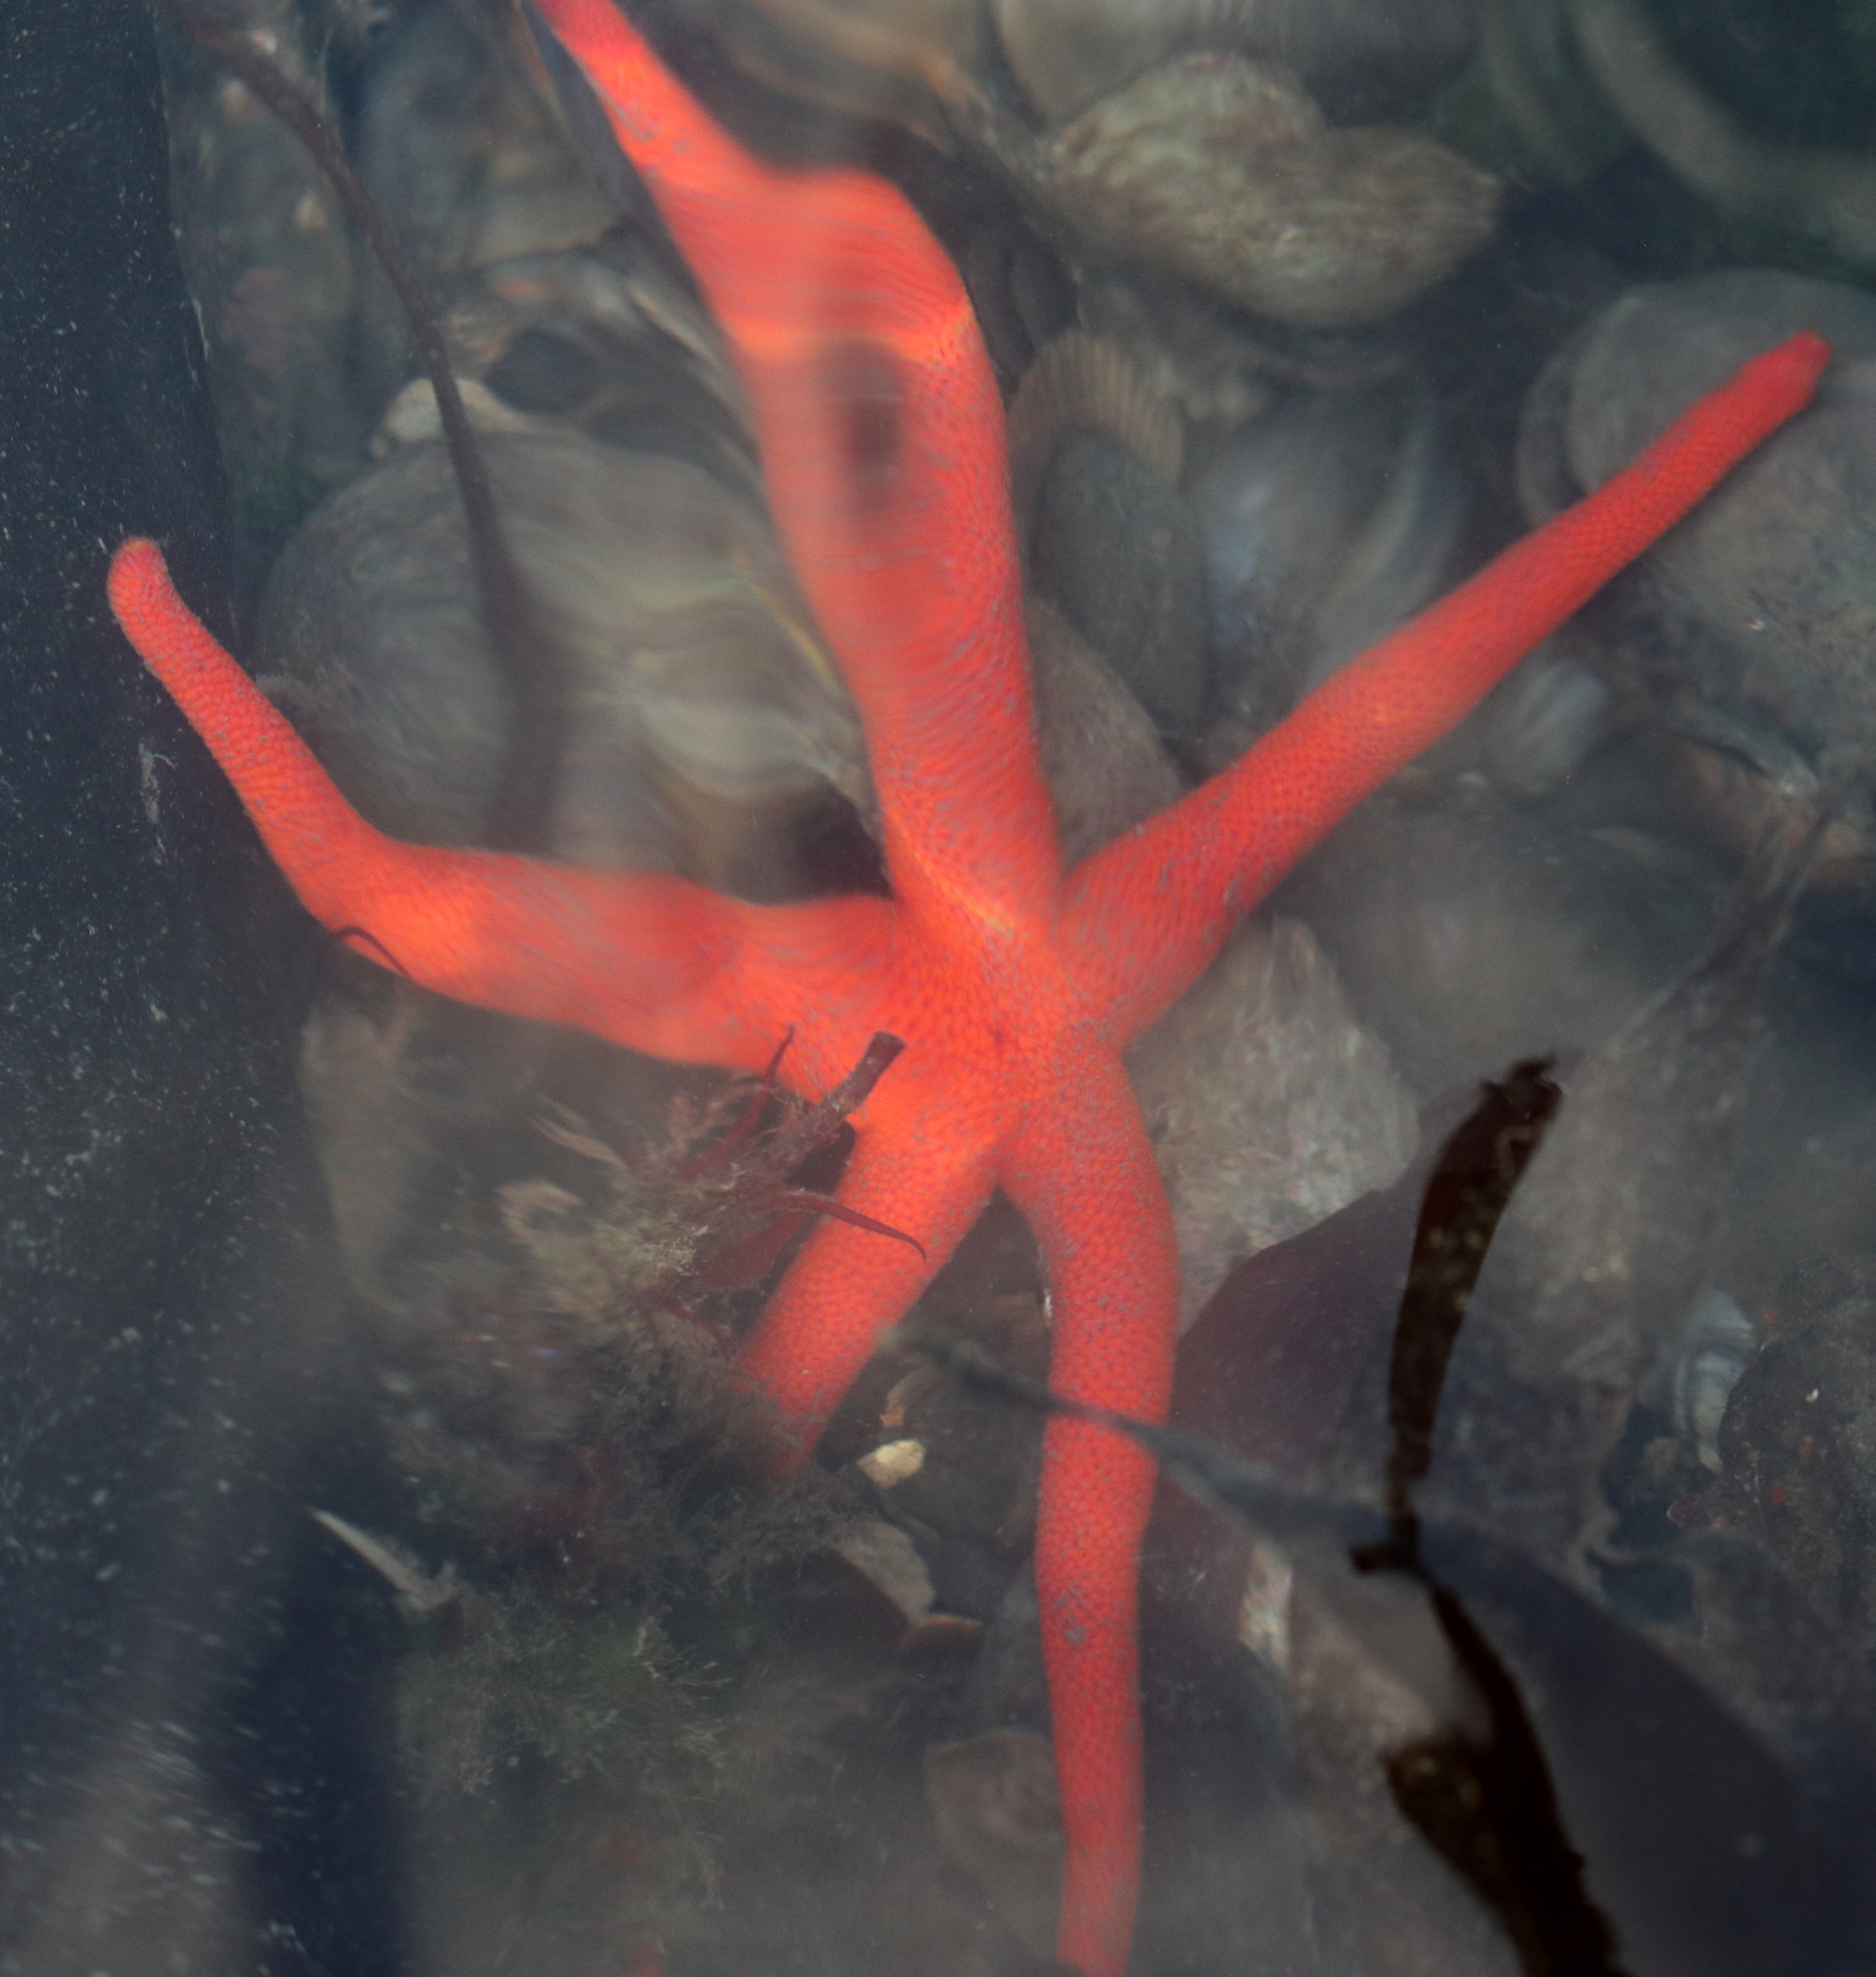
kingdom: Animalia
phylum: Echinodermata
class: Asteroidea
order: Spinulosida
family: Echinasteridae
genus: Henricia
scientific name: Henricia leviuscula
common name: Pacific blood star
